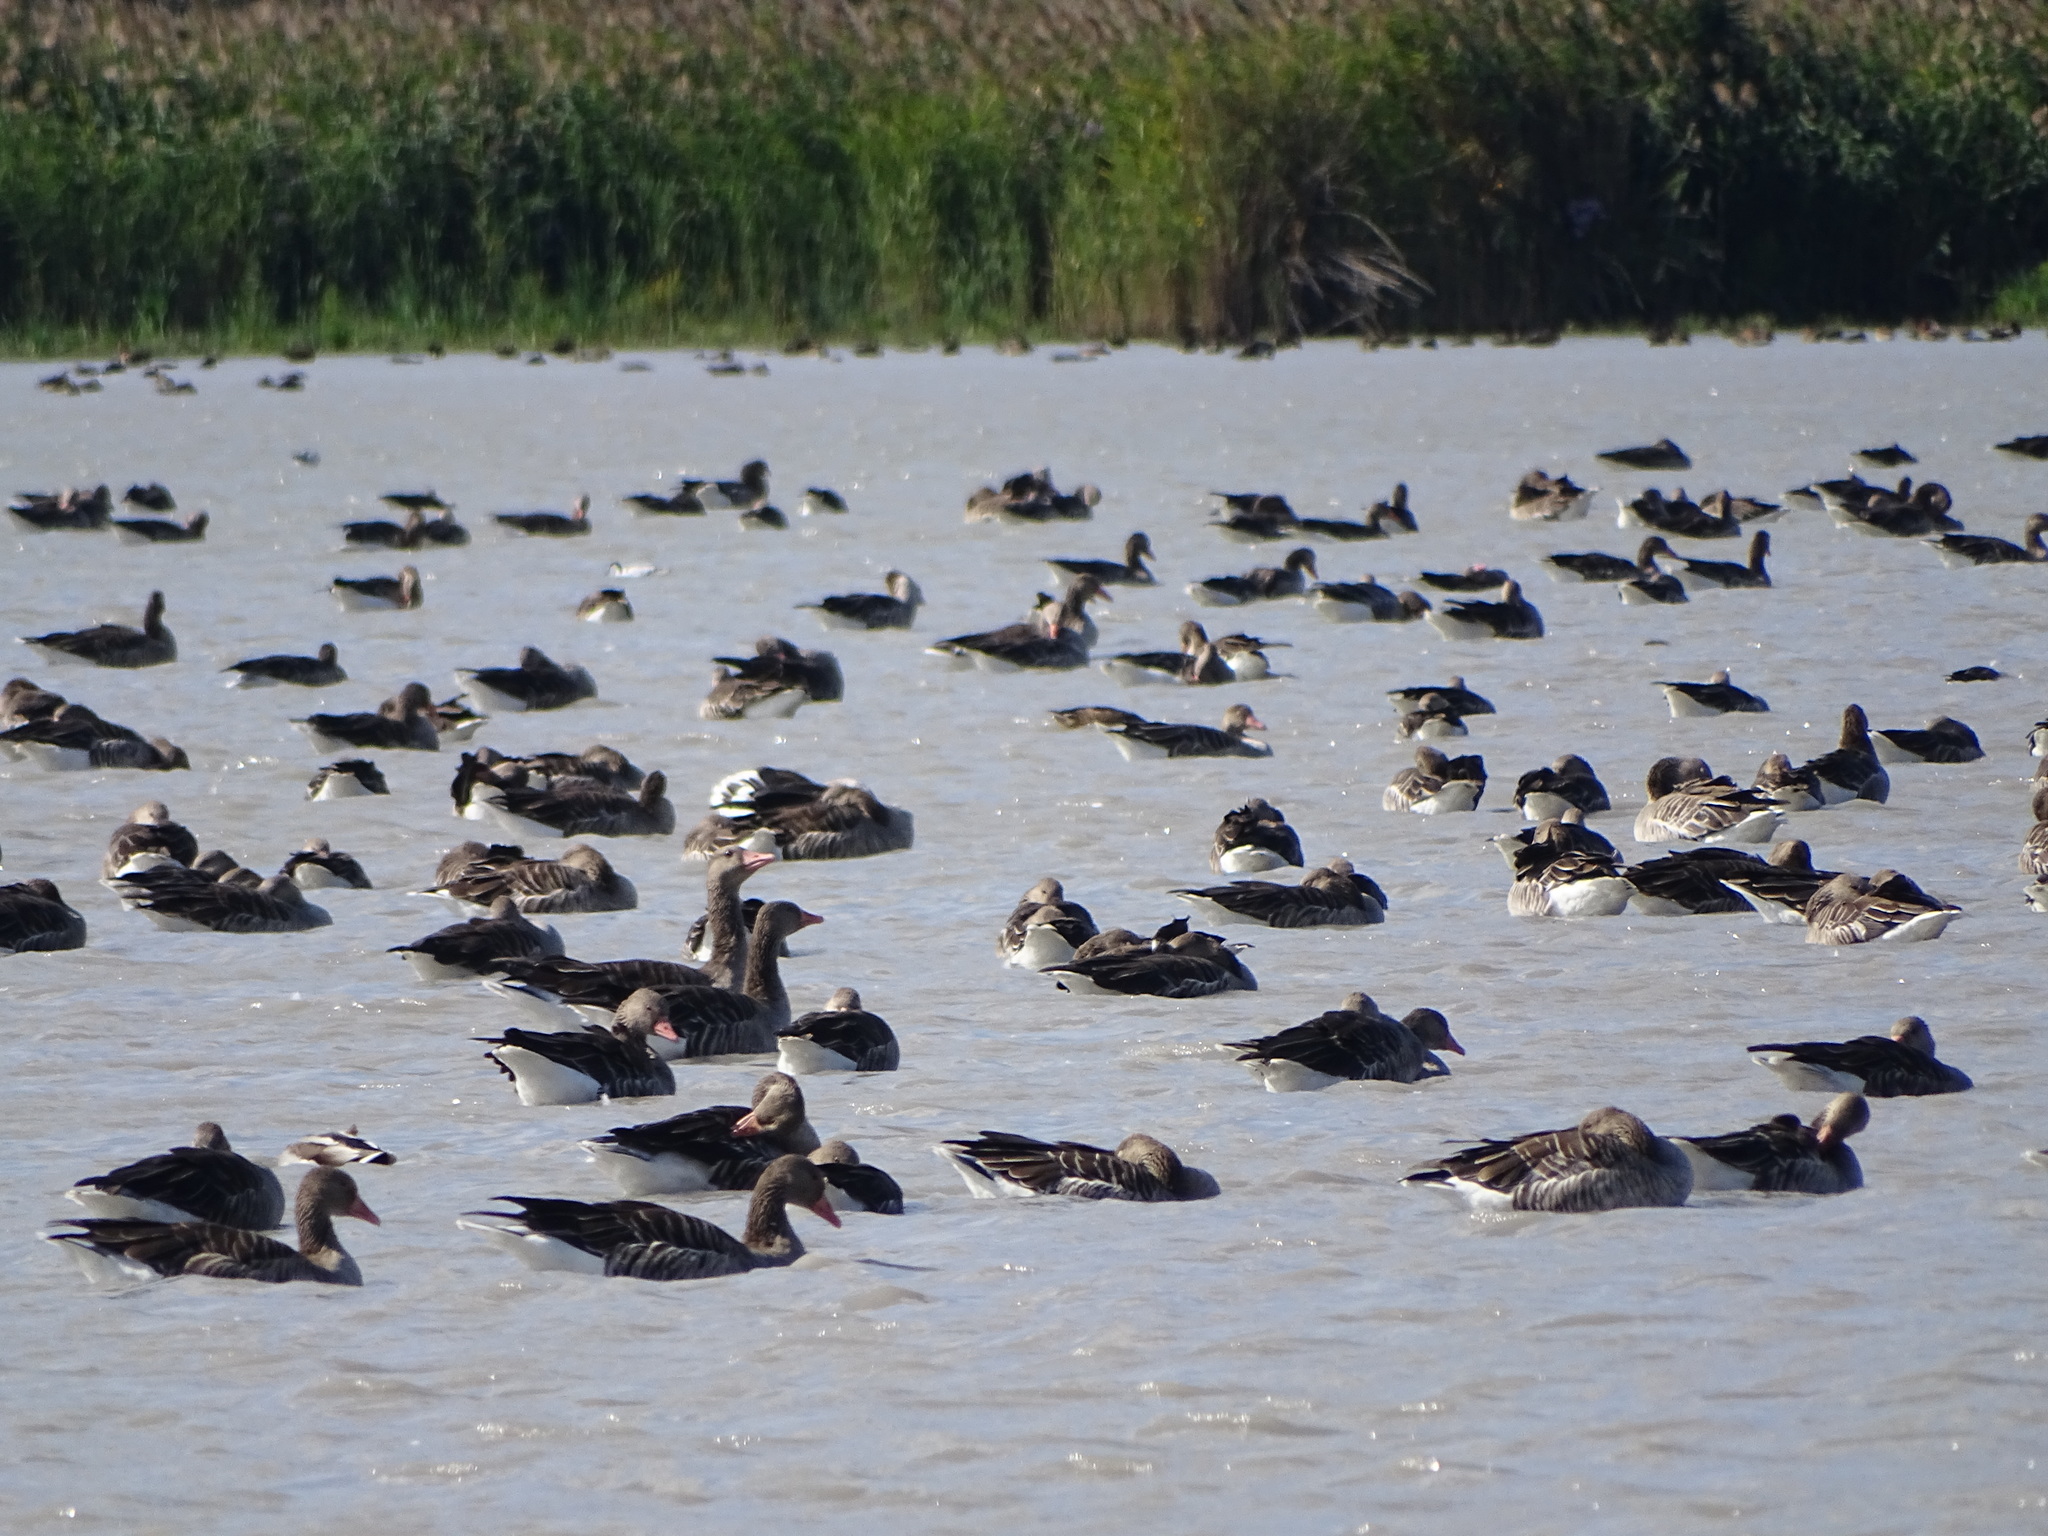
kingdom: Animalia
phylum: Chordata
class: Aves
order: Anseriformes
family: Anatidae
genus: Anser
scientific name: Anser anser
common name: Greylag goose
